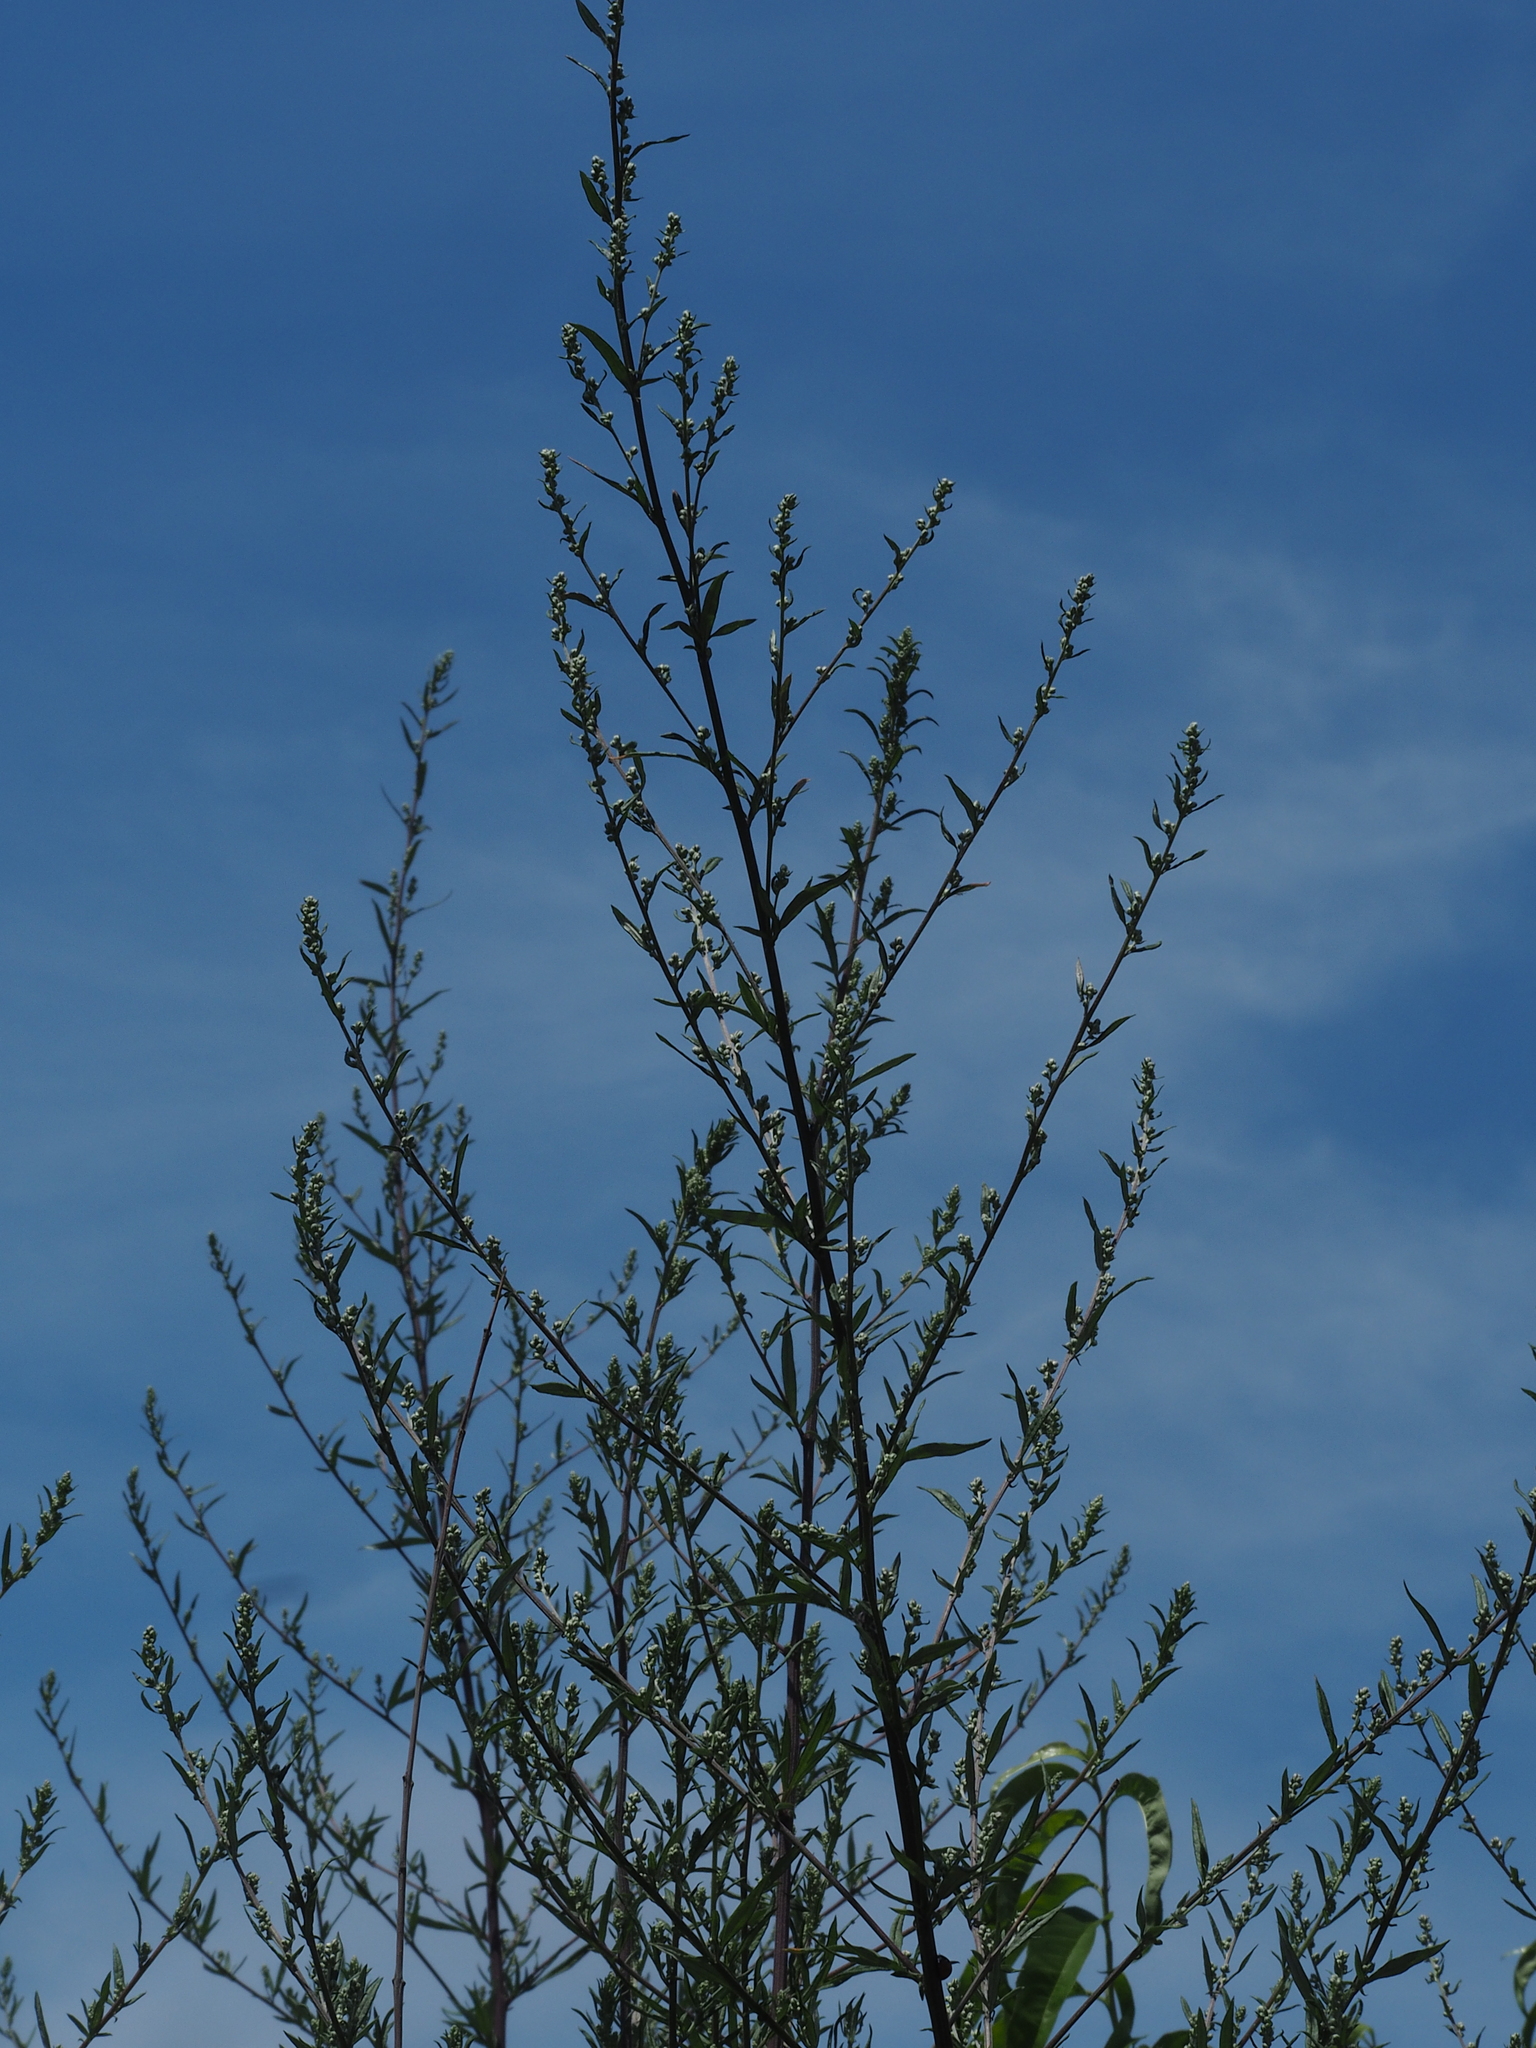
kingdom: Plantae
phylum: Tracheophyta
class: Magnoliopsida
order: Asterales
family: Asteraceae
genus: Artemisia
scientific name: Artemisia vulgaris
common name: Mugwort
